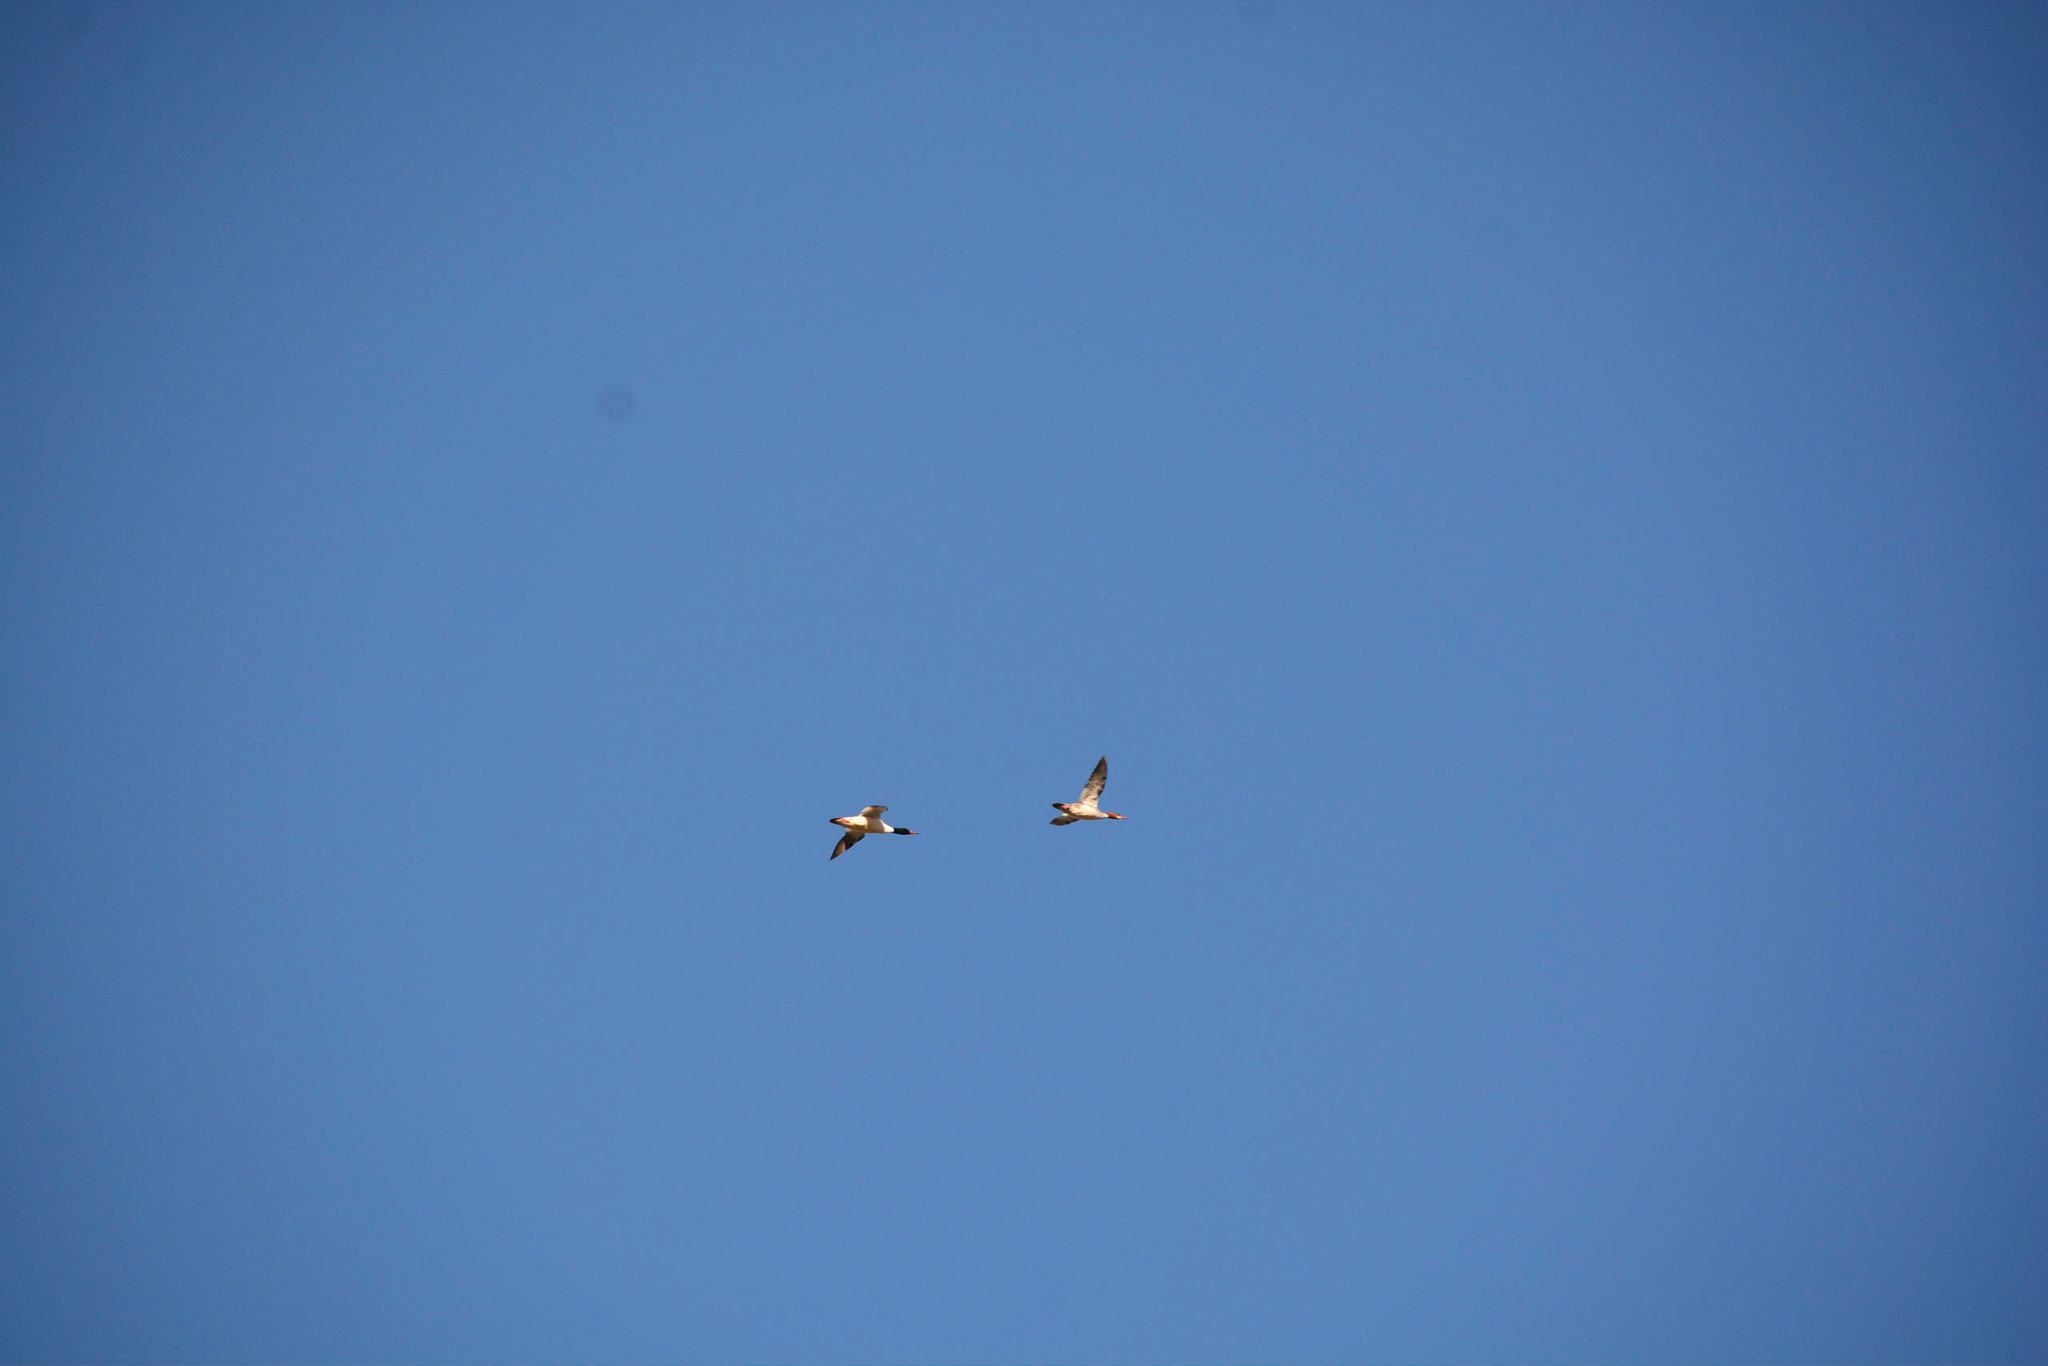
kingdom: Animalia
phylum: Chordata
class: Aves
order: Anseriformes
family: Anatidae
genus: Mergus
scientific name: Mergus merganser
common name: Common merganser
